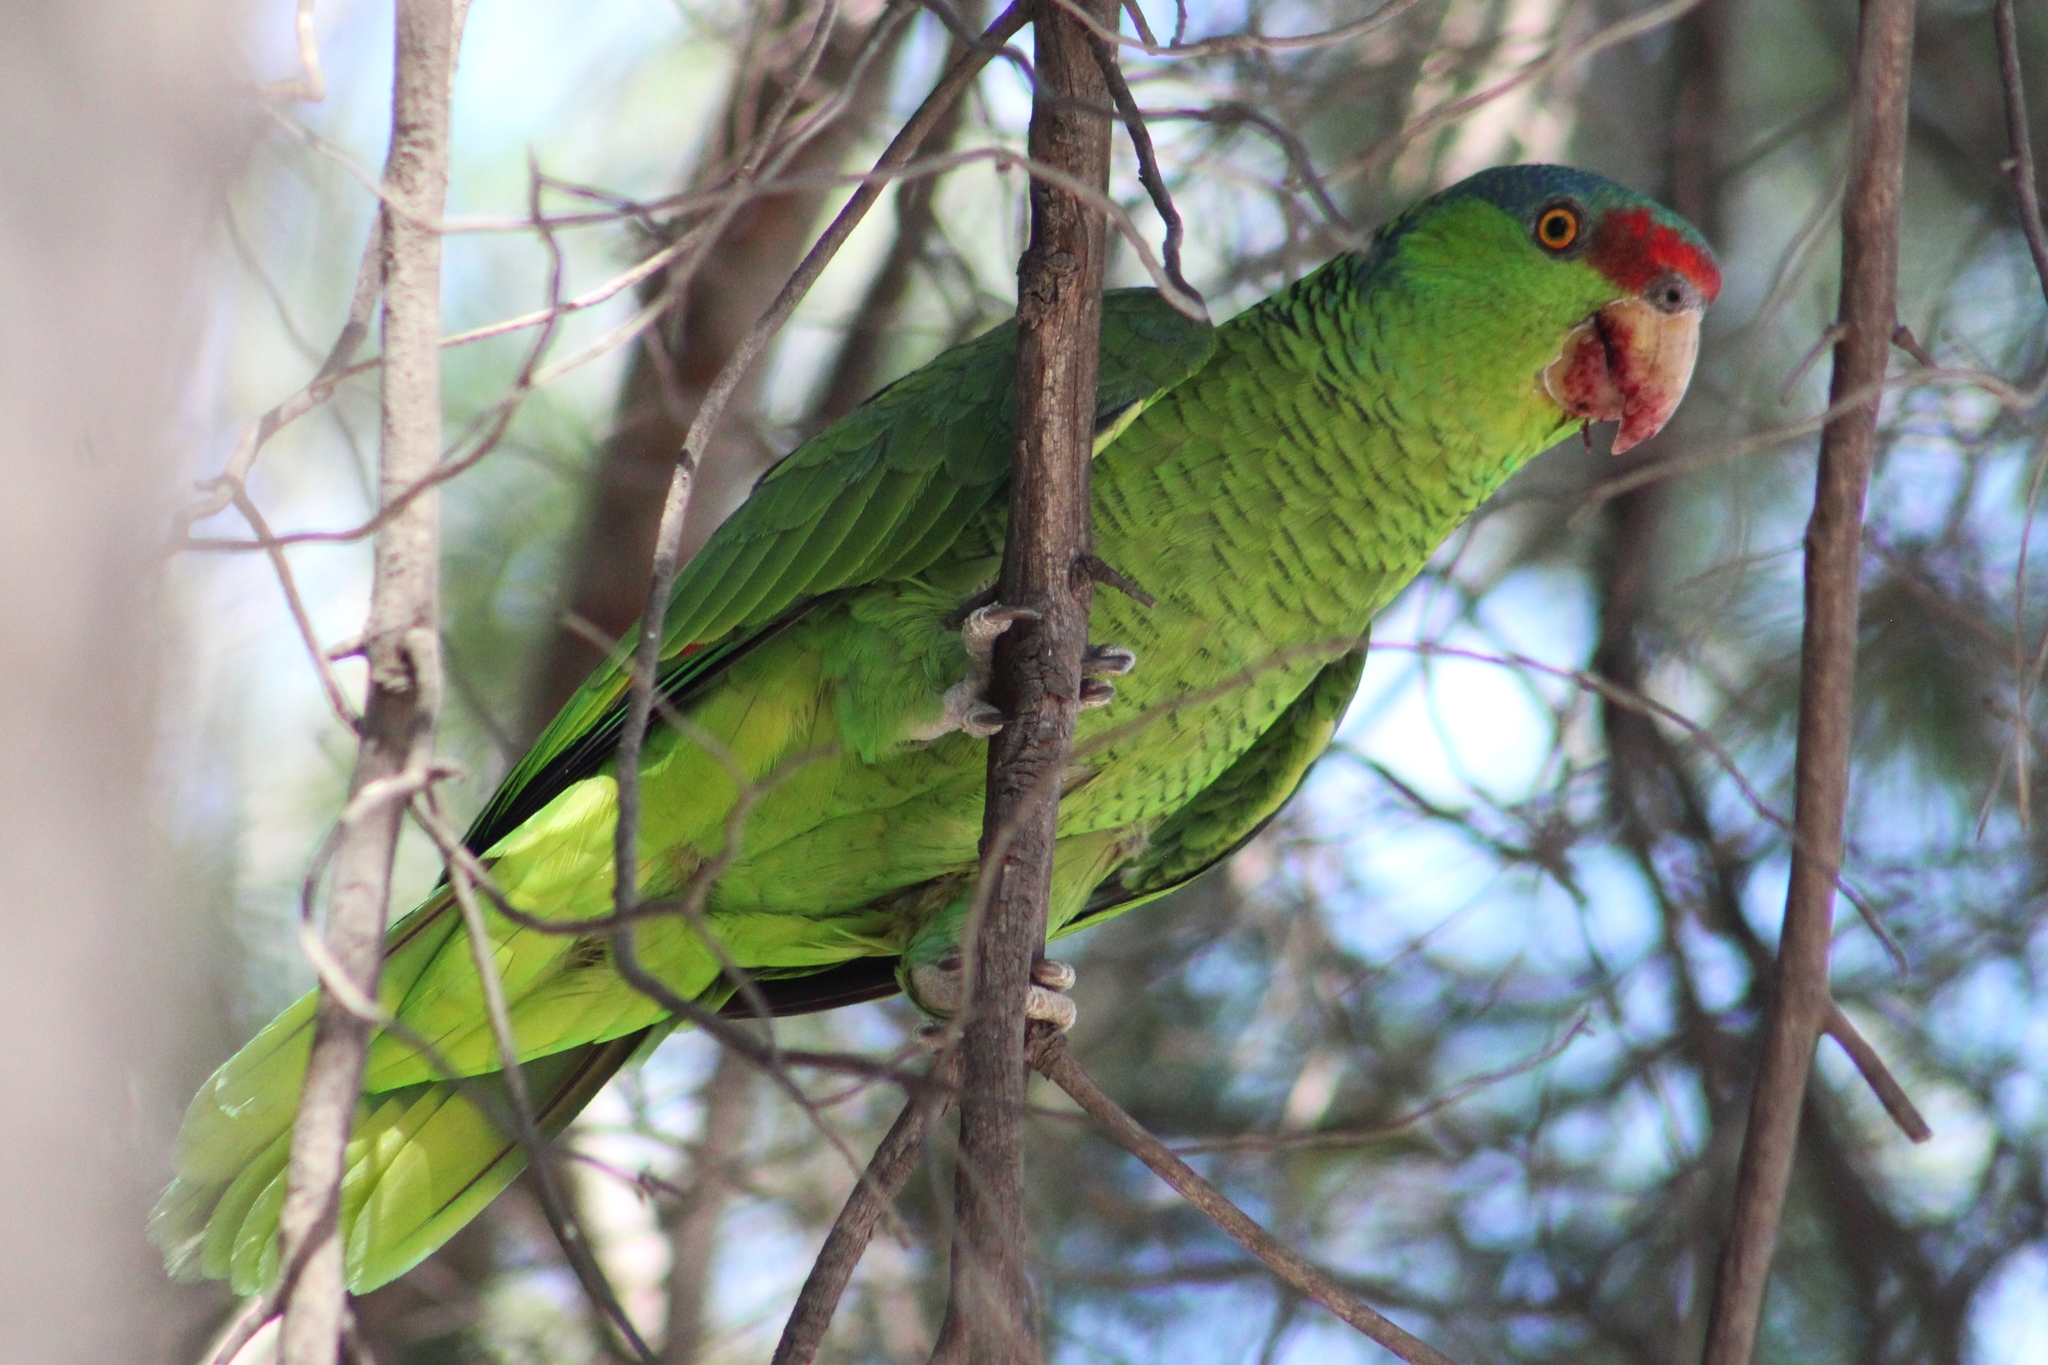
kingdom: Animalia
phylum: Chordata
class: Aves
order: Psittaciformes
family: Psittacidae
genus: Amazona
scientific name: Amazona finschi
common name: Lilac-crowned amazon
